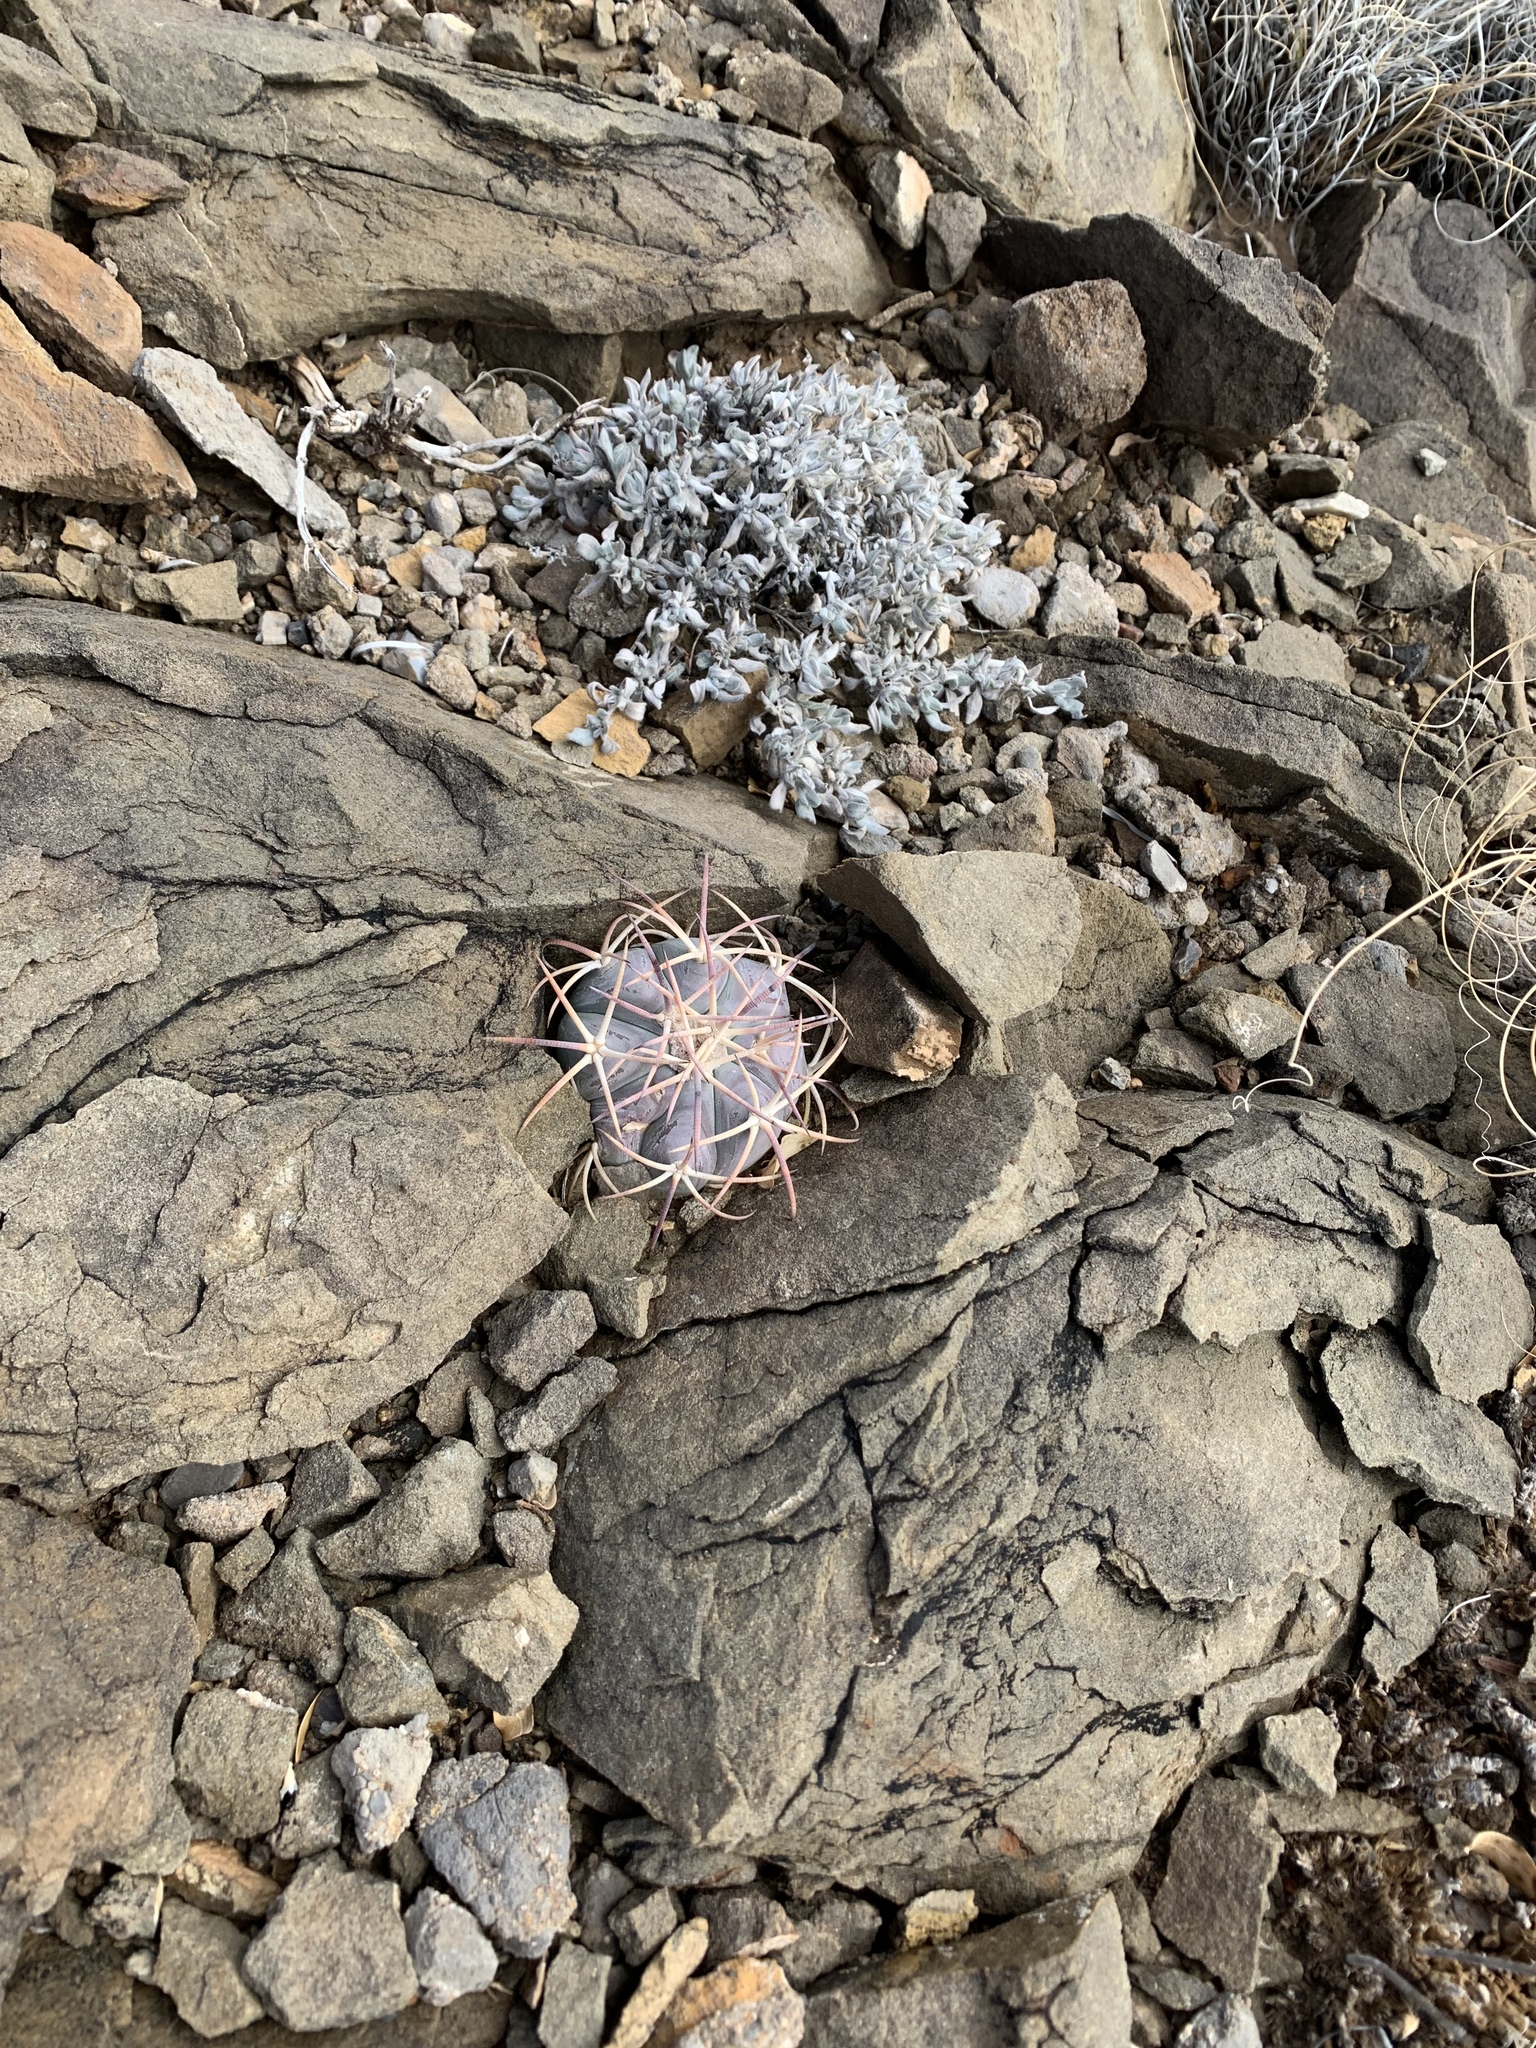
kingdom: Plantae
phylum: Tracheophyta
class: Magnoliopsida
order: Caryophyllales
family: Cactaceae
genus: Echinocactus
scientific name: Echinocactus horizonthalonius
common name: Devilshead
